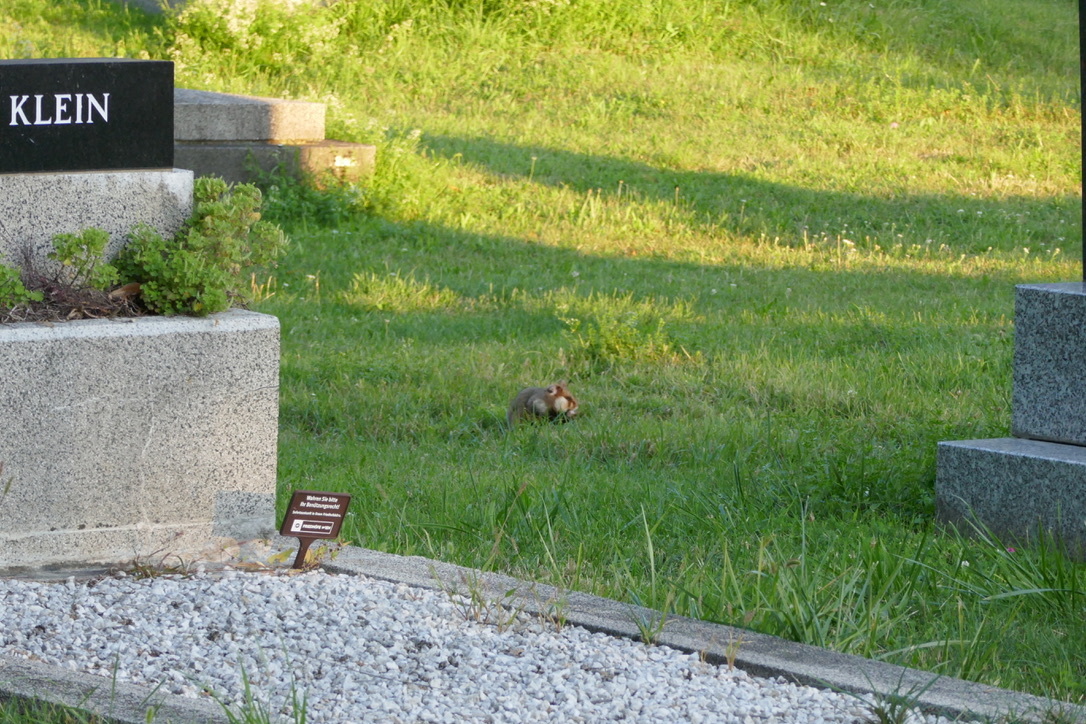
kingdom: Animalia
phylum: Chordata
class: Mammalia
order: Rodentia
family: Cricetidae
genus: Cricetus
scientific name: Cricetus cricetus
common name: Common hamster
